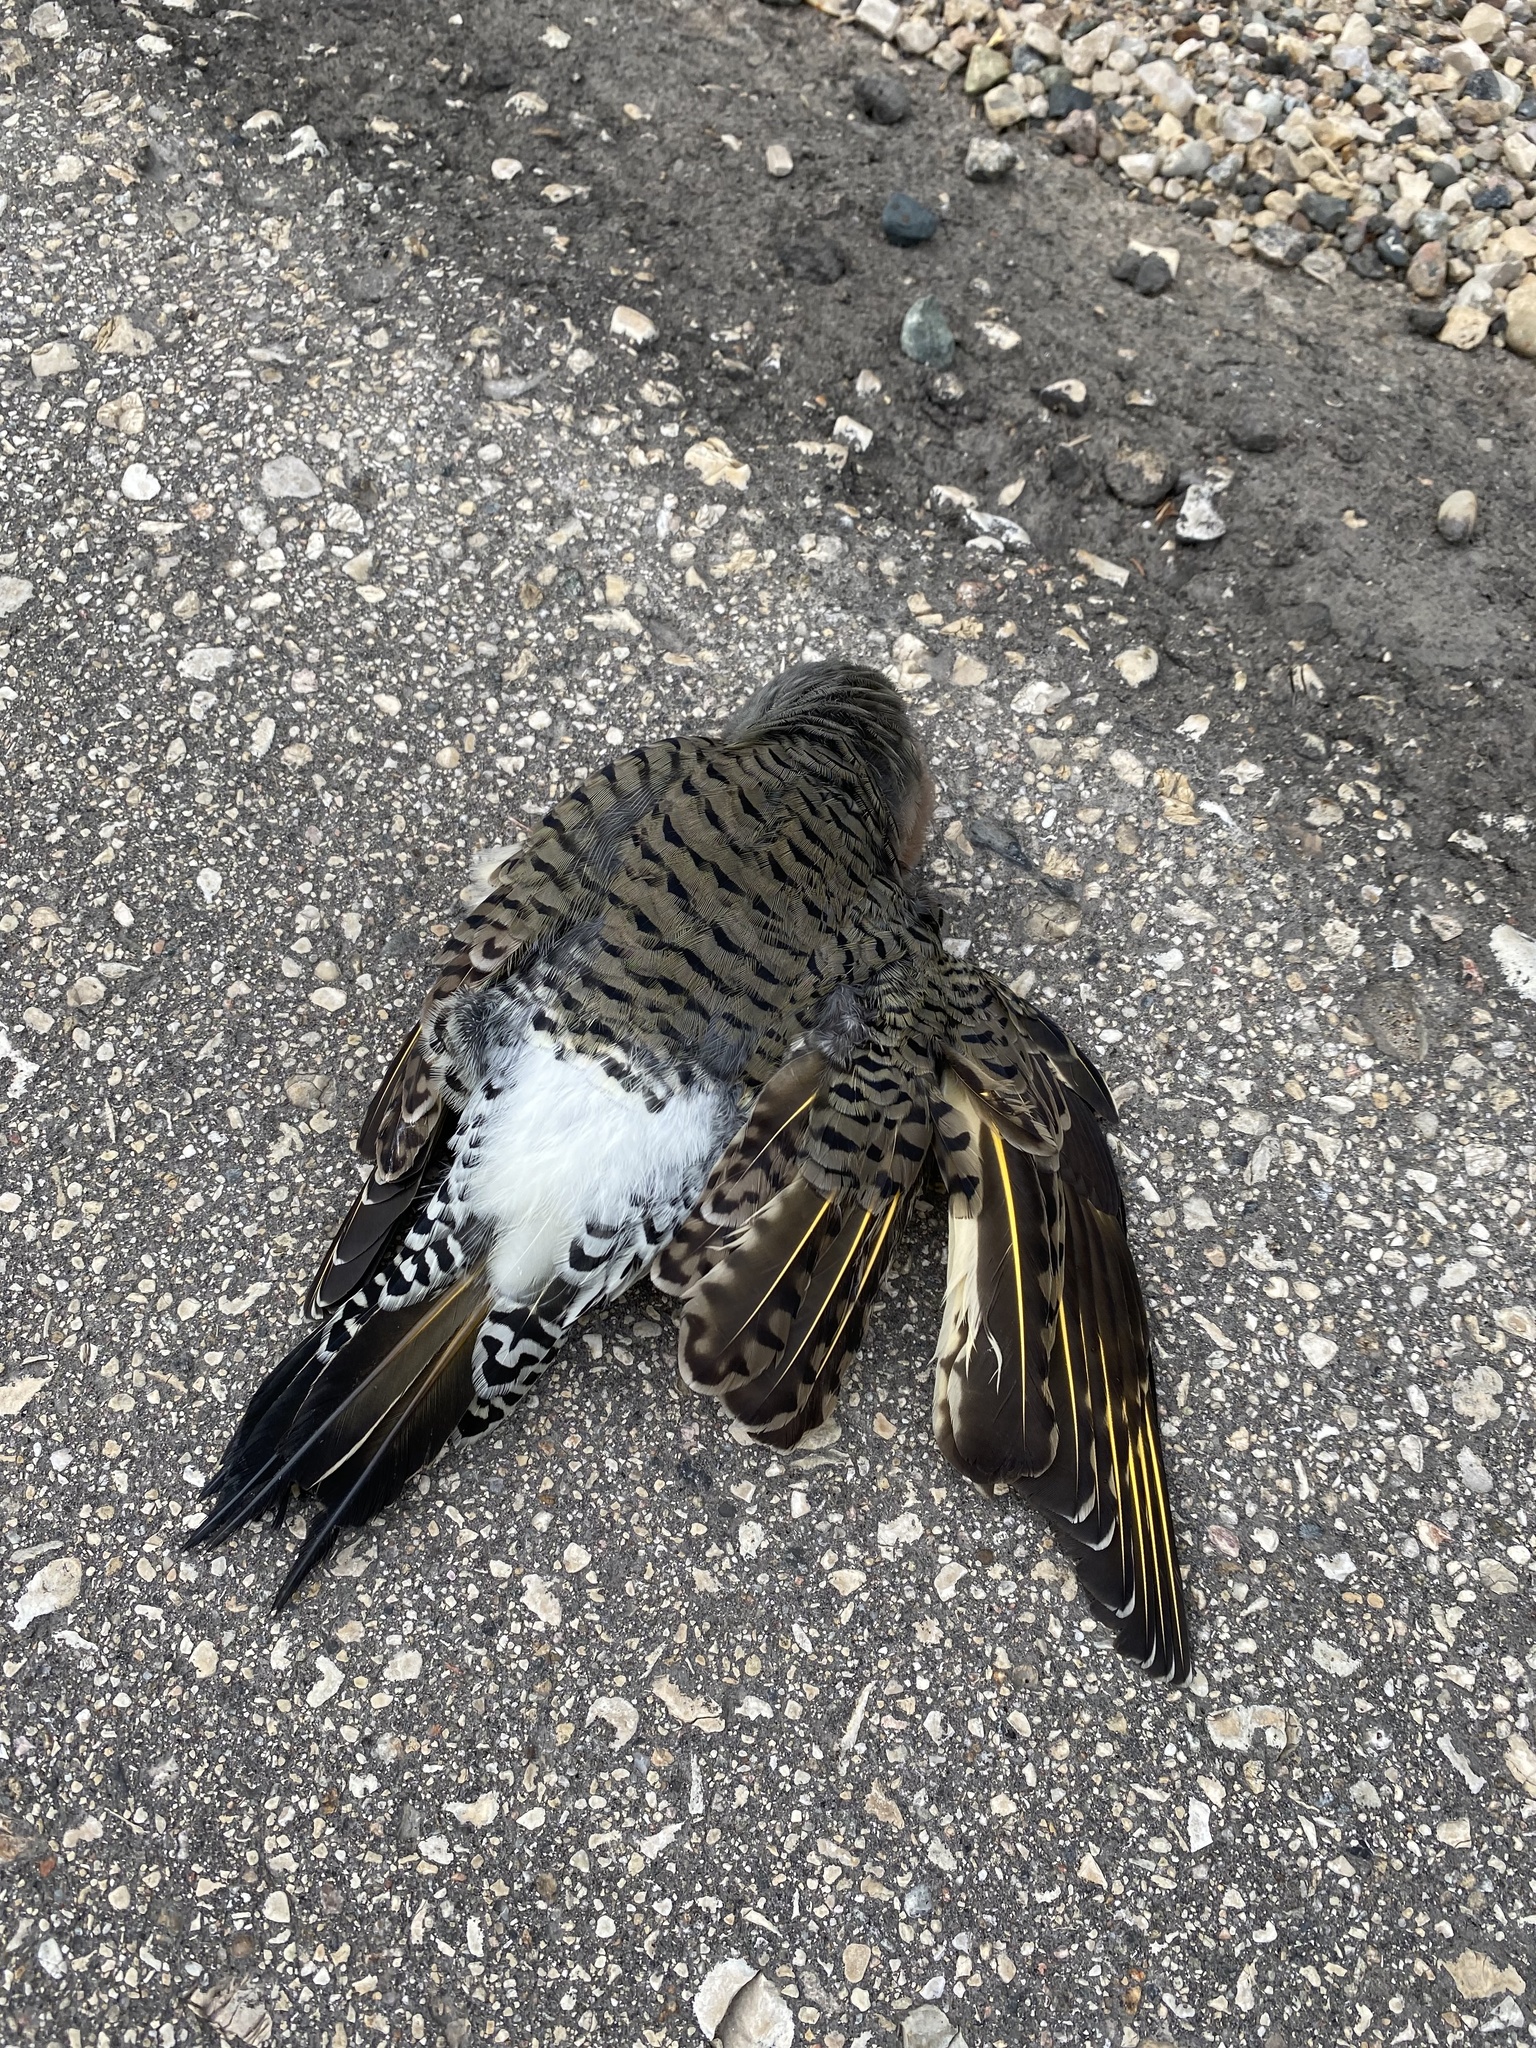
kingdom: Animalia
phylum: Chordata
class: Aves
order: Piciformes
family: Picidae
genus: Colaptes
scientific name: Colaptes auratus
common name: Northern flicker
